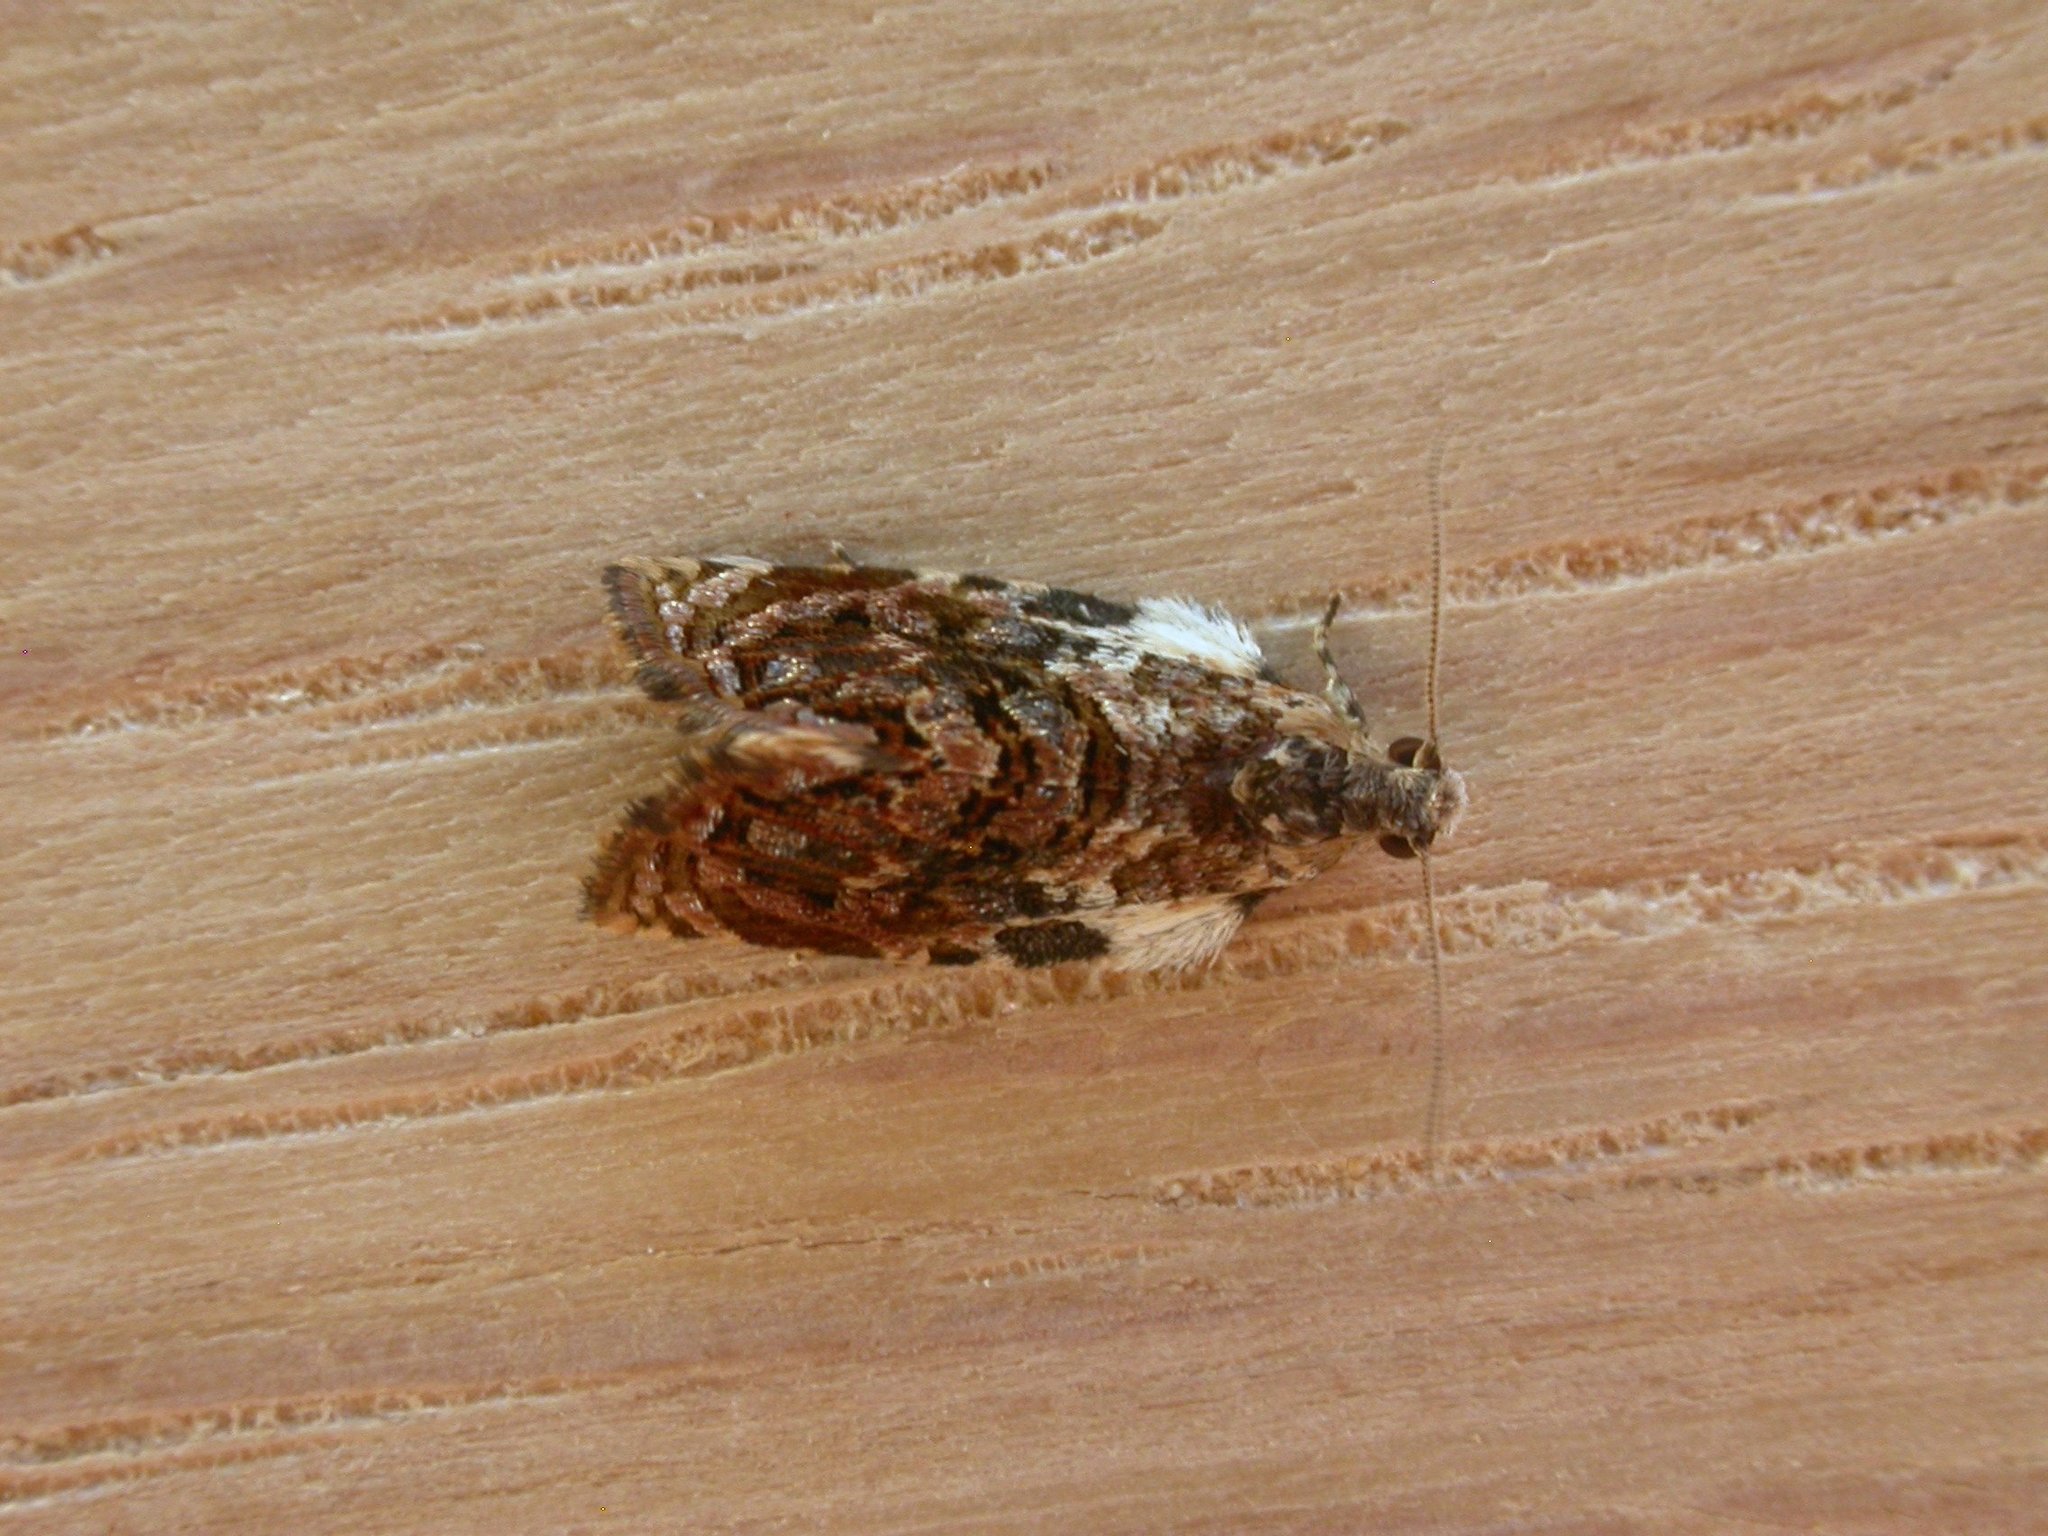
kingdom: Animalia
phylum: Arthropoda
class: Insecta
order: Lepidoptera
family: Tortricidae
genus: Acroceuthes
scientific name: Acroceuthes metaxanthana
